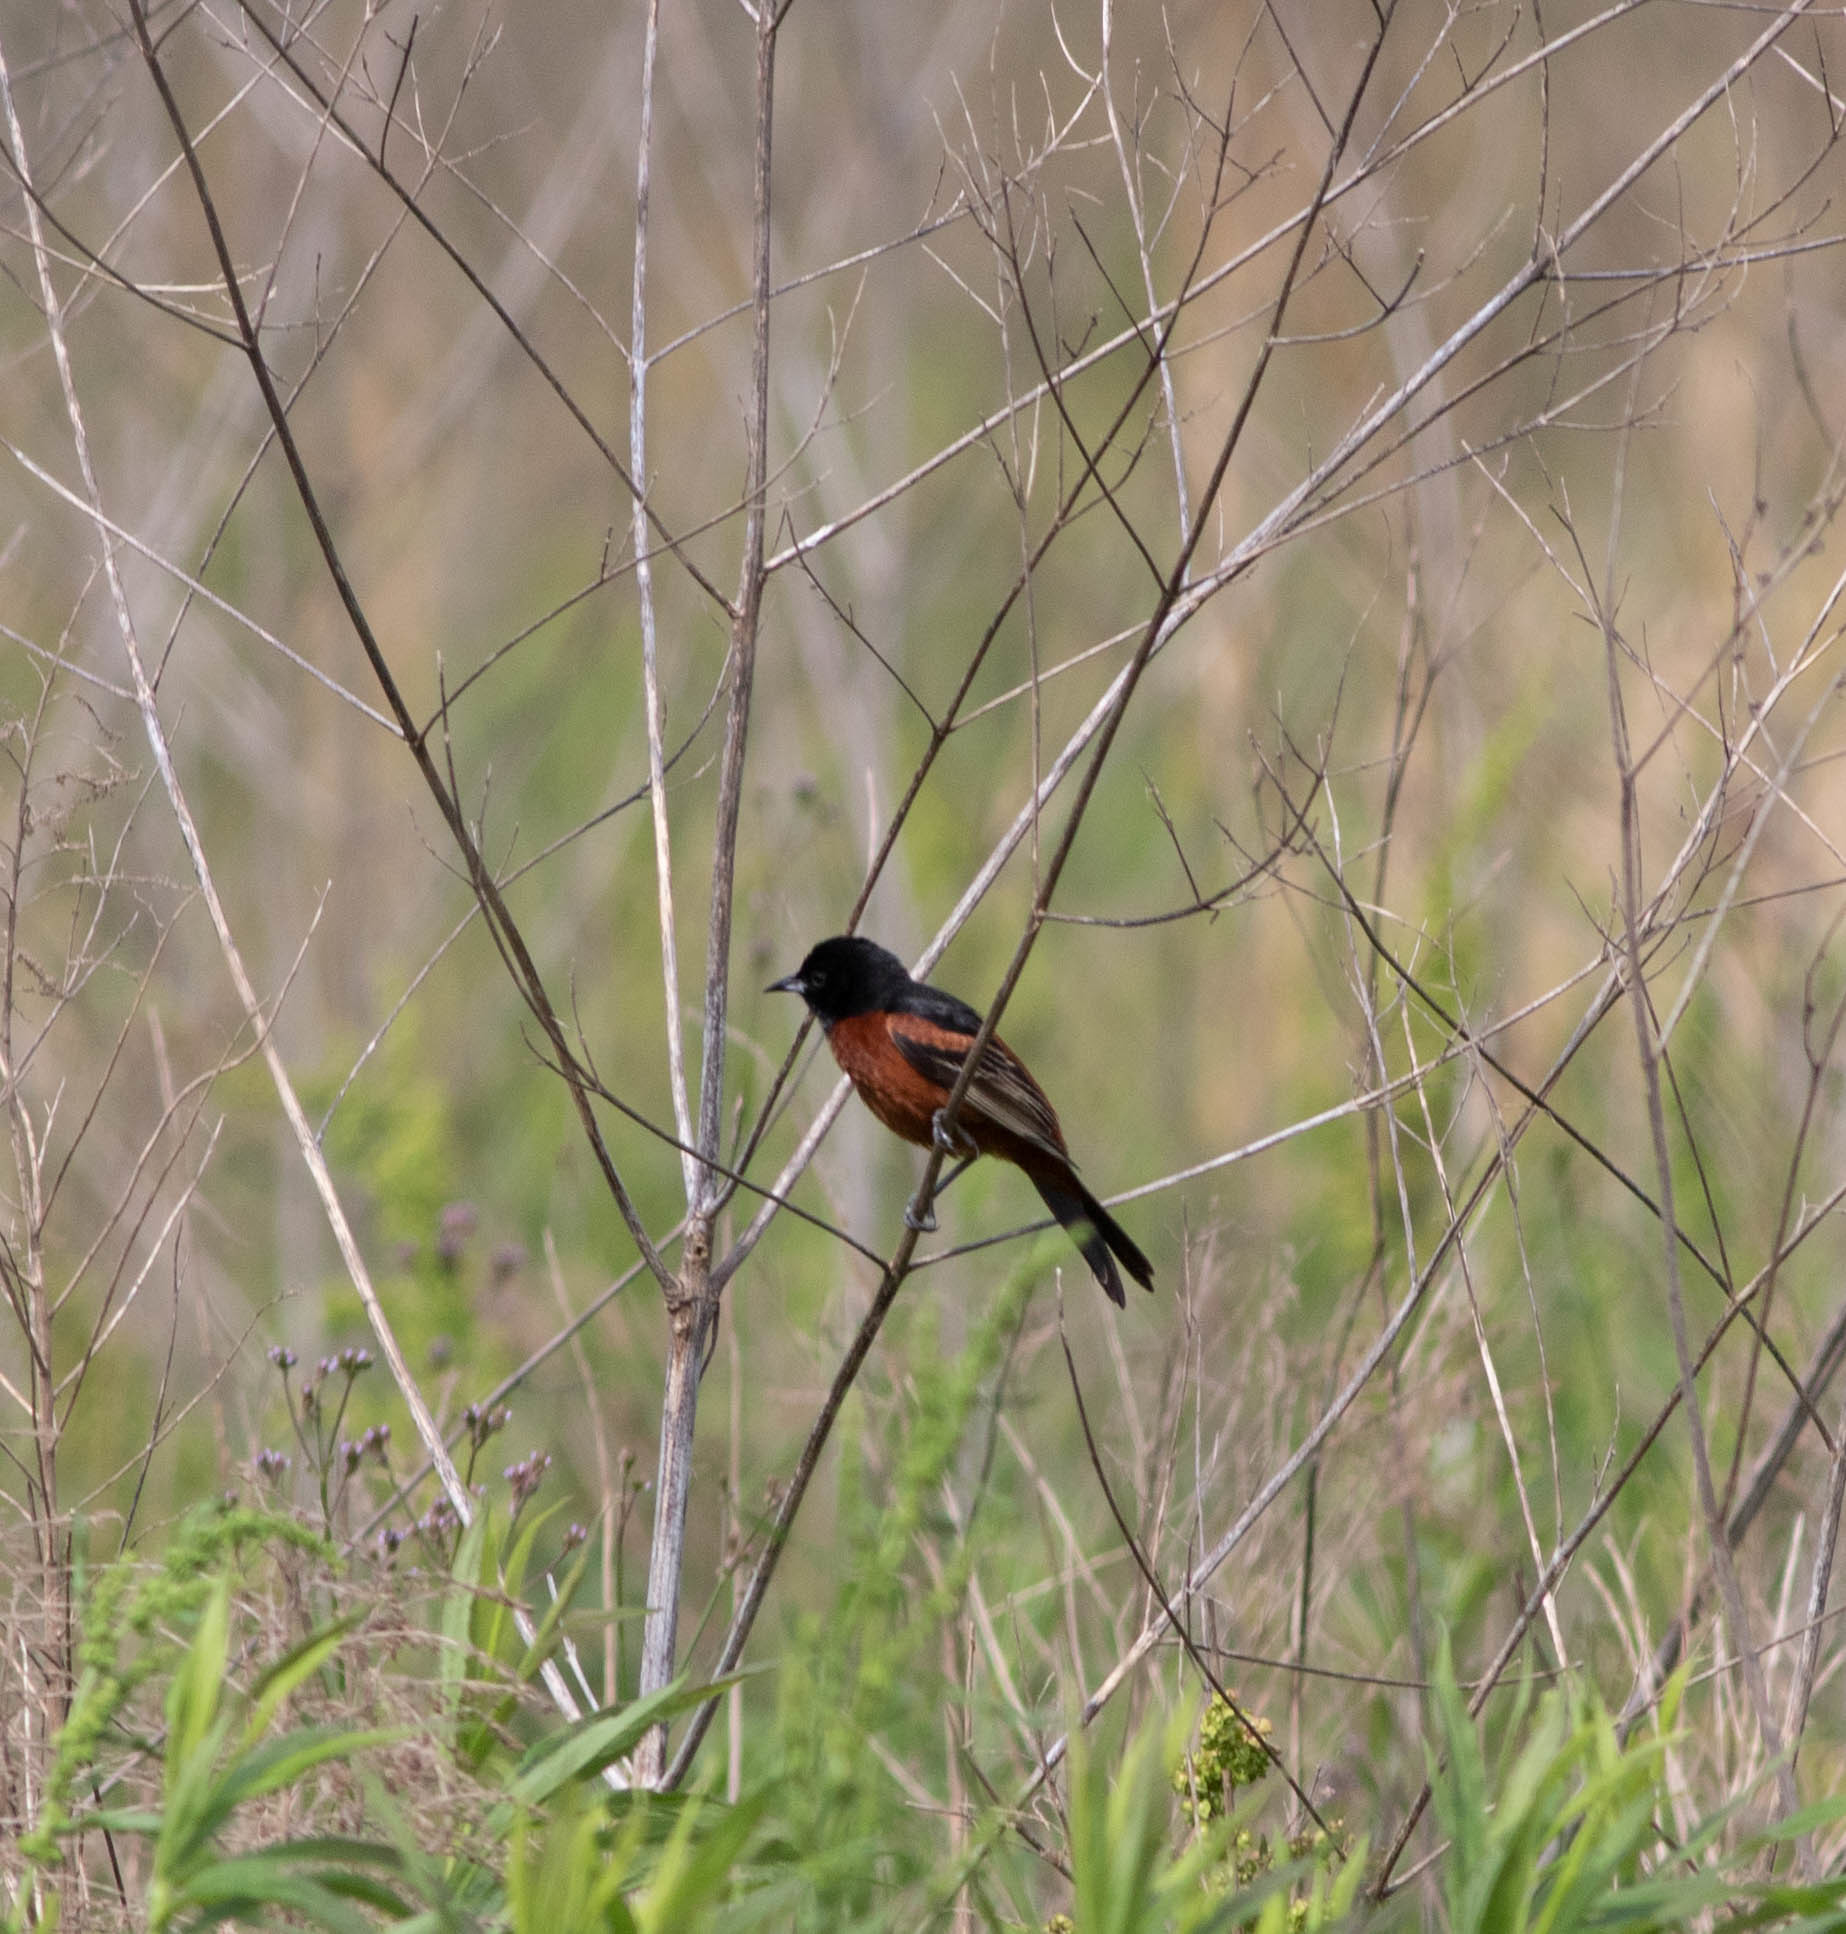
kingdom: Animalia
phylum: Chordata
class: Aves
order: Passeriformes
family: Icteridae
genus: Icterus
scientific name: Icterus spurius
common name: Orchard oriole
